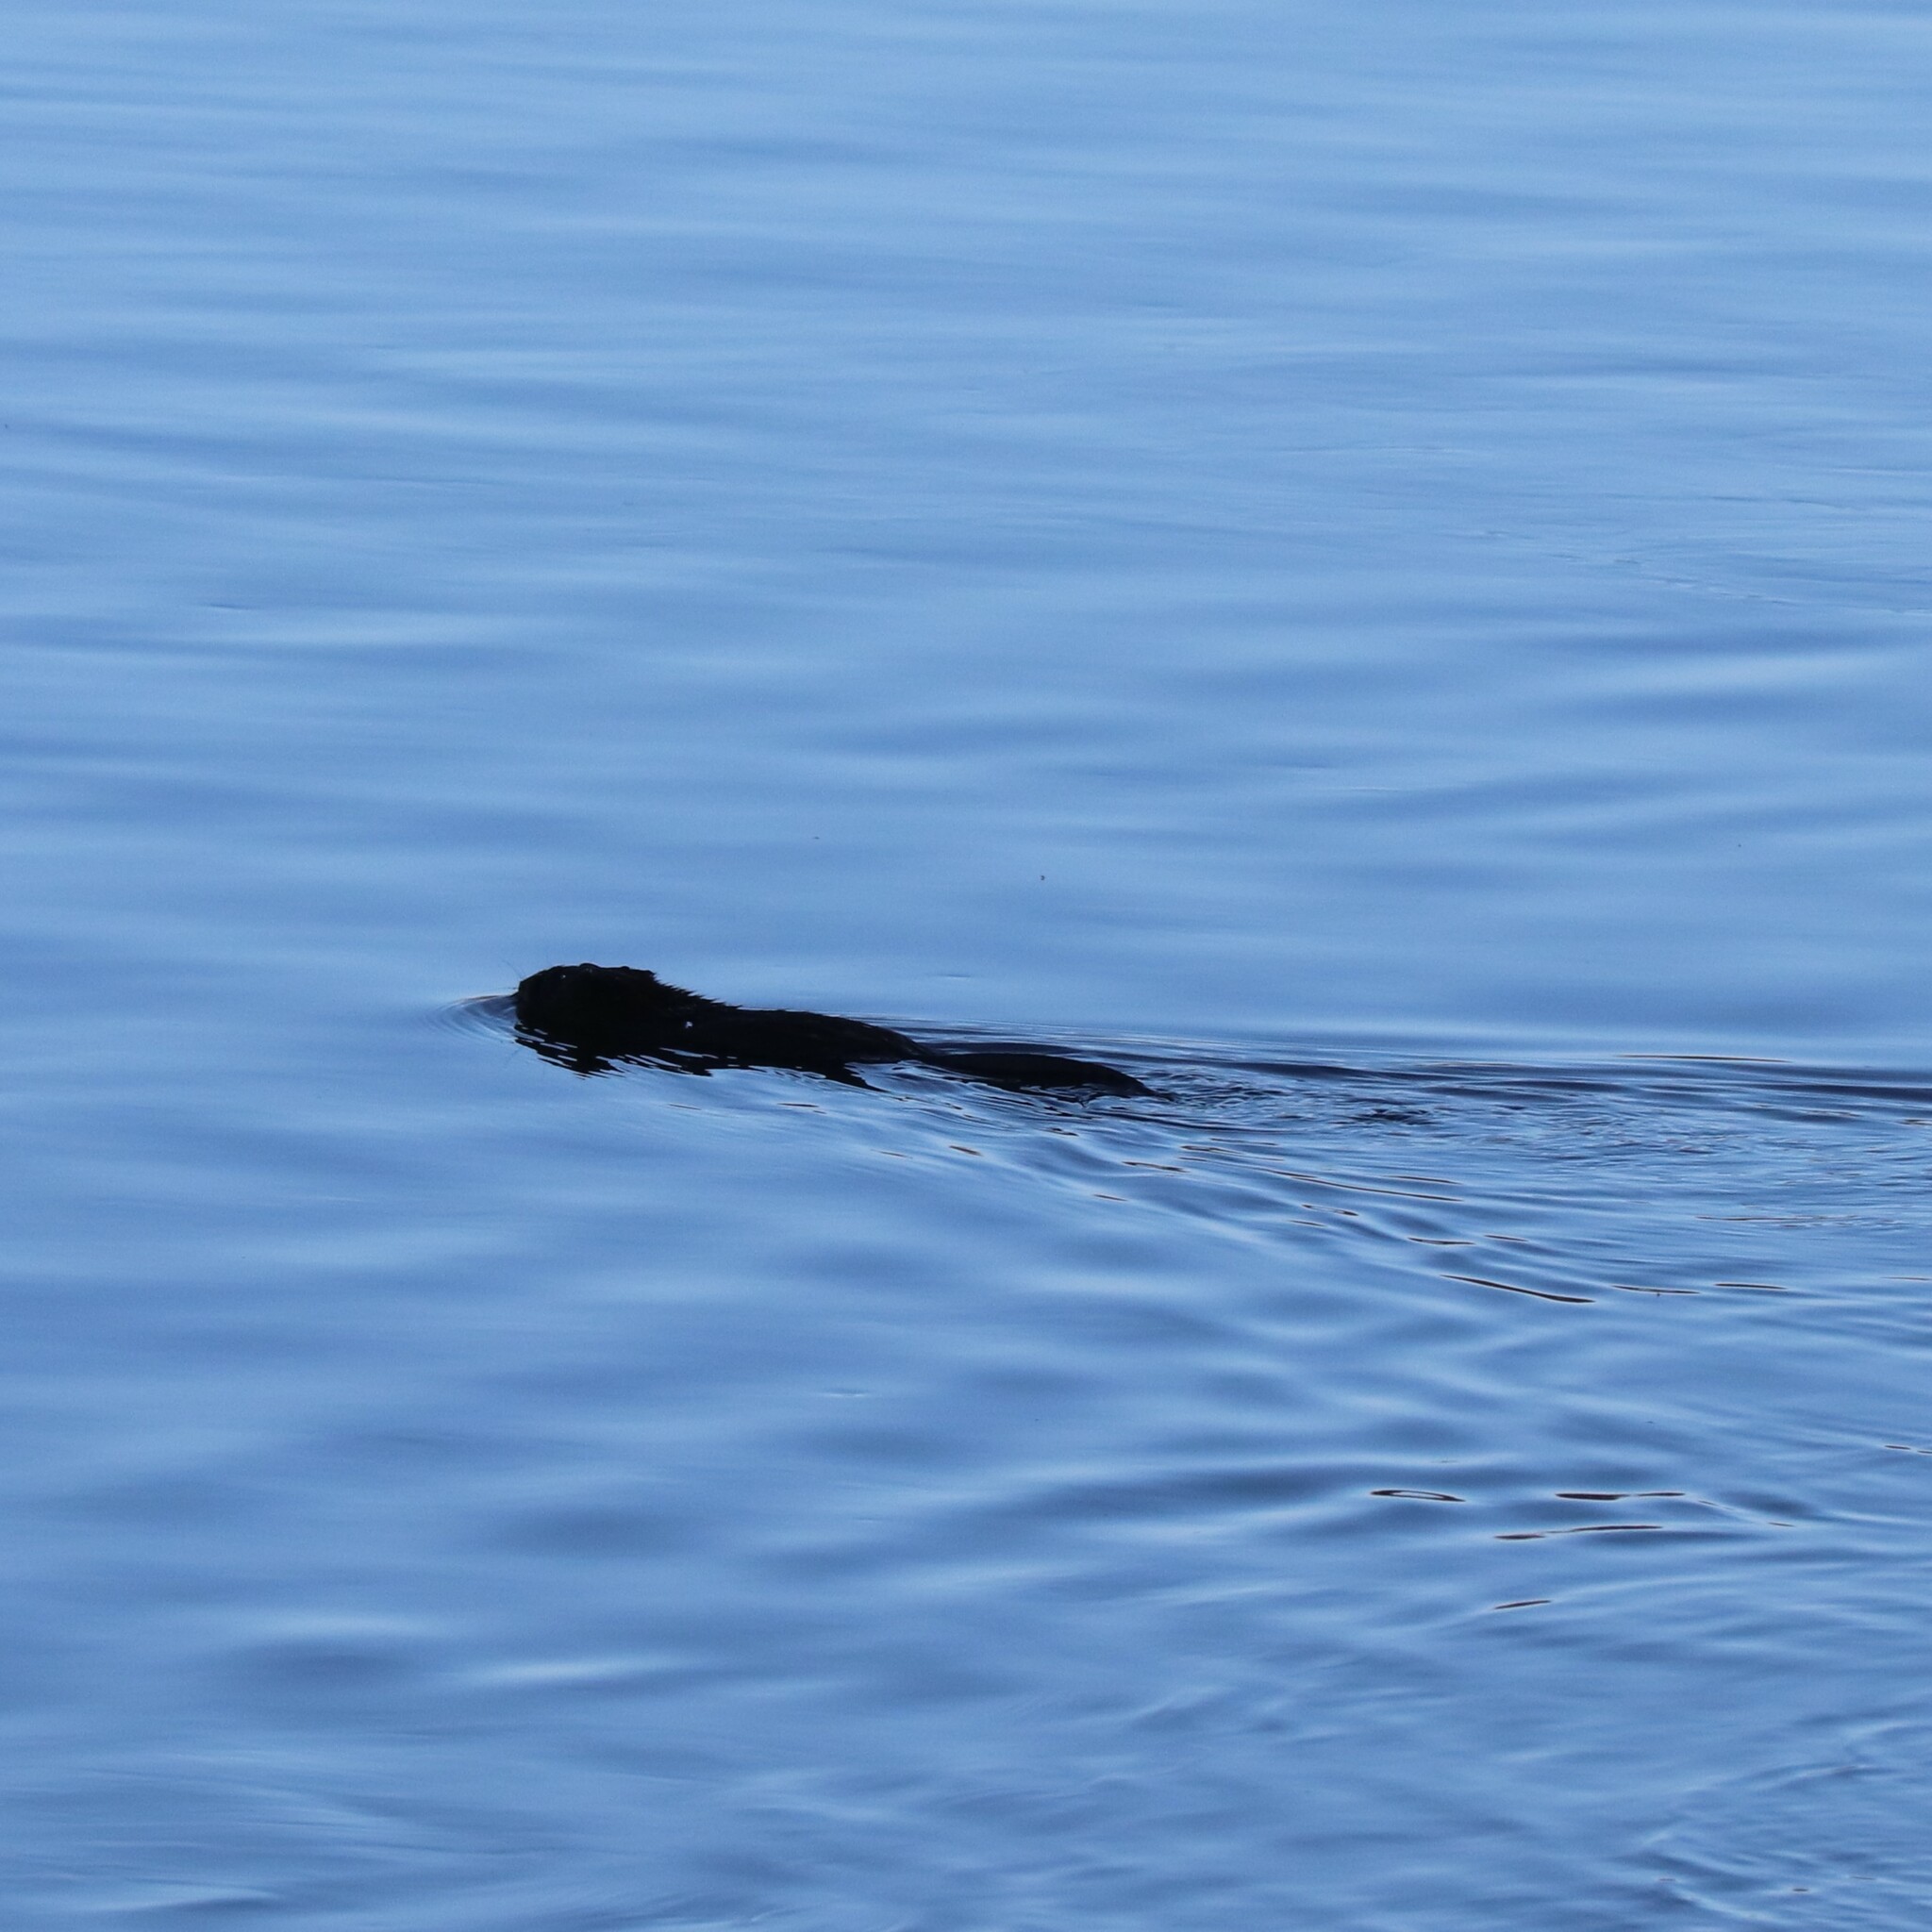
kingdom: Animalia
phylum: Chordata
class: Mammalia
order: Rodentia
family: Cricetidae
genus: Ondatra
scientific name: Ondatra zibethicus
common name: Muskrat
